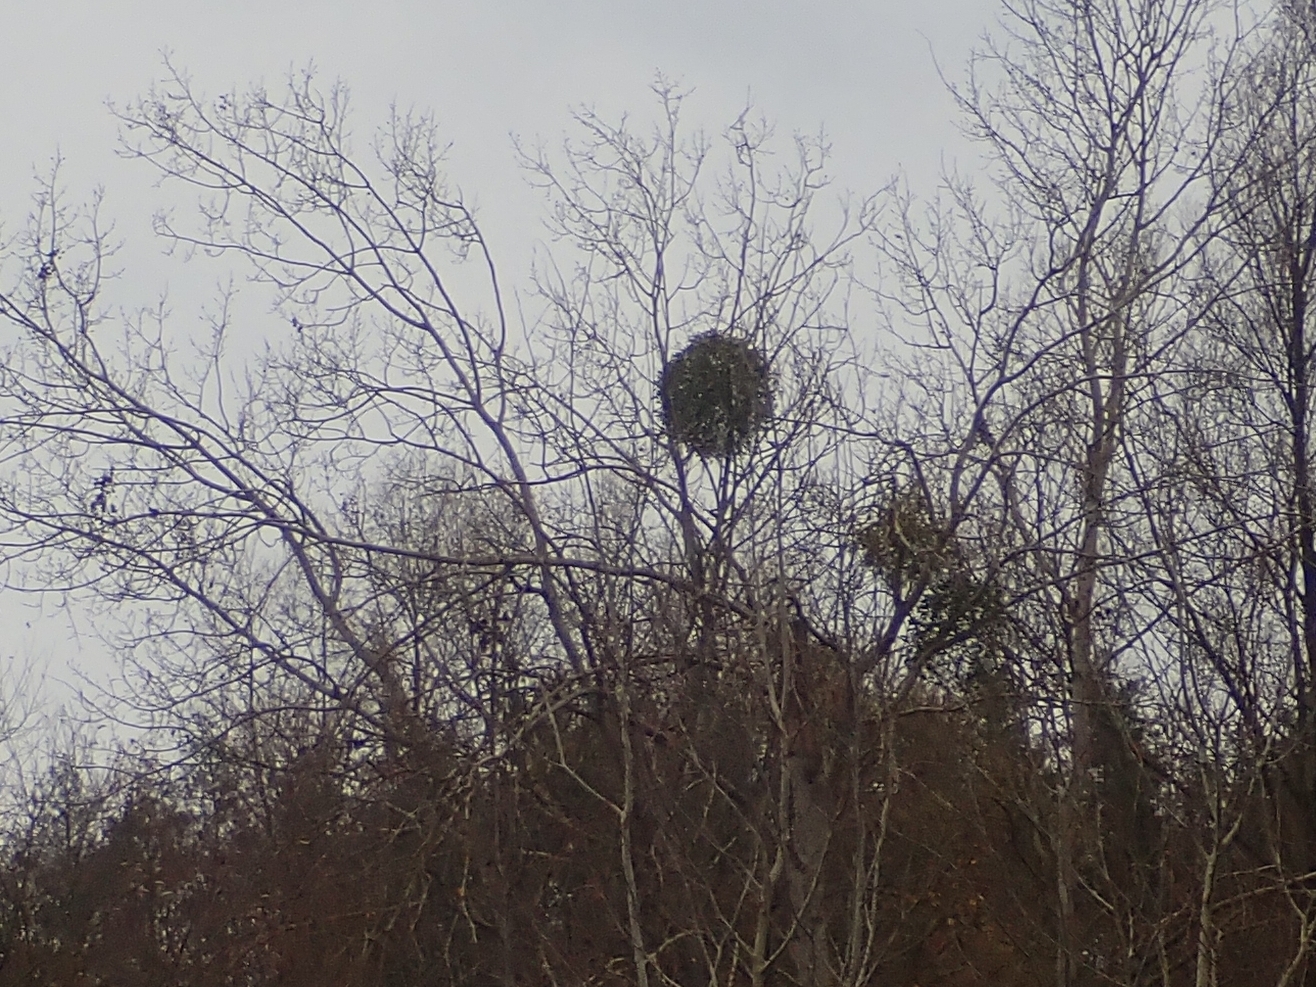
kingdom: Plantae
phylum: Tracheophyta
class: Magnoliopsida
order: Santalales
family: Viscaceae
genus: Viscum
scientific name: Viscum album
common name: Mistletoe
